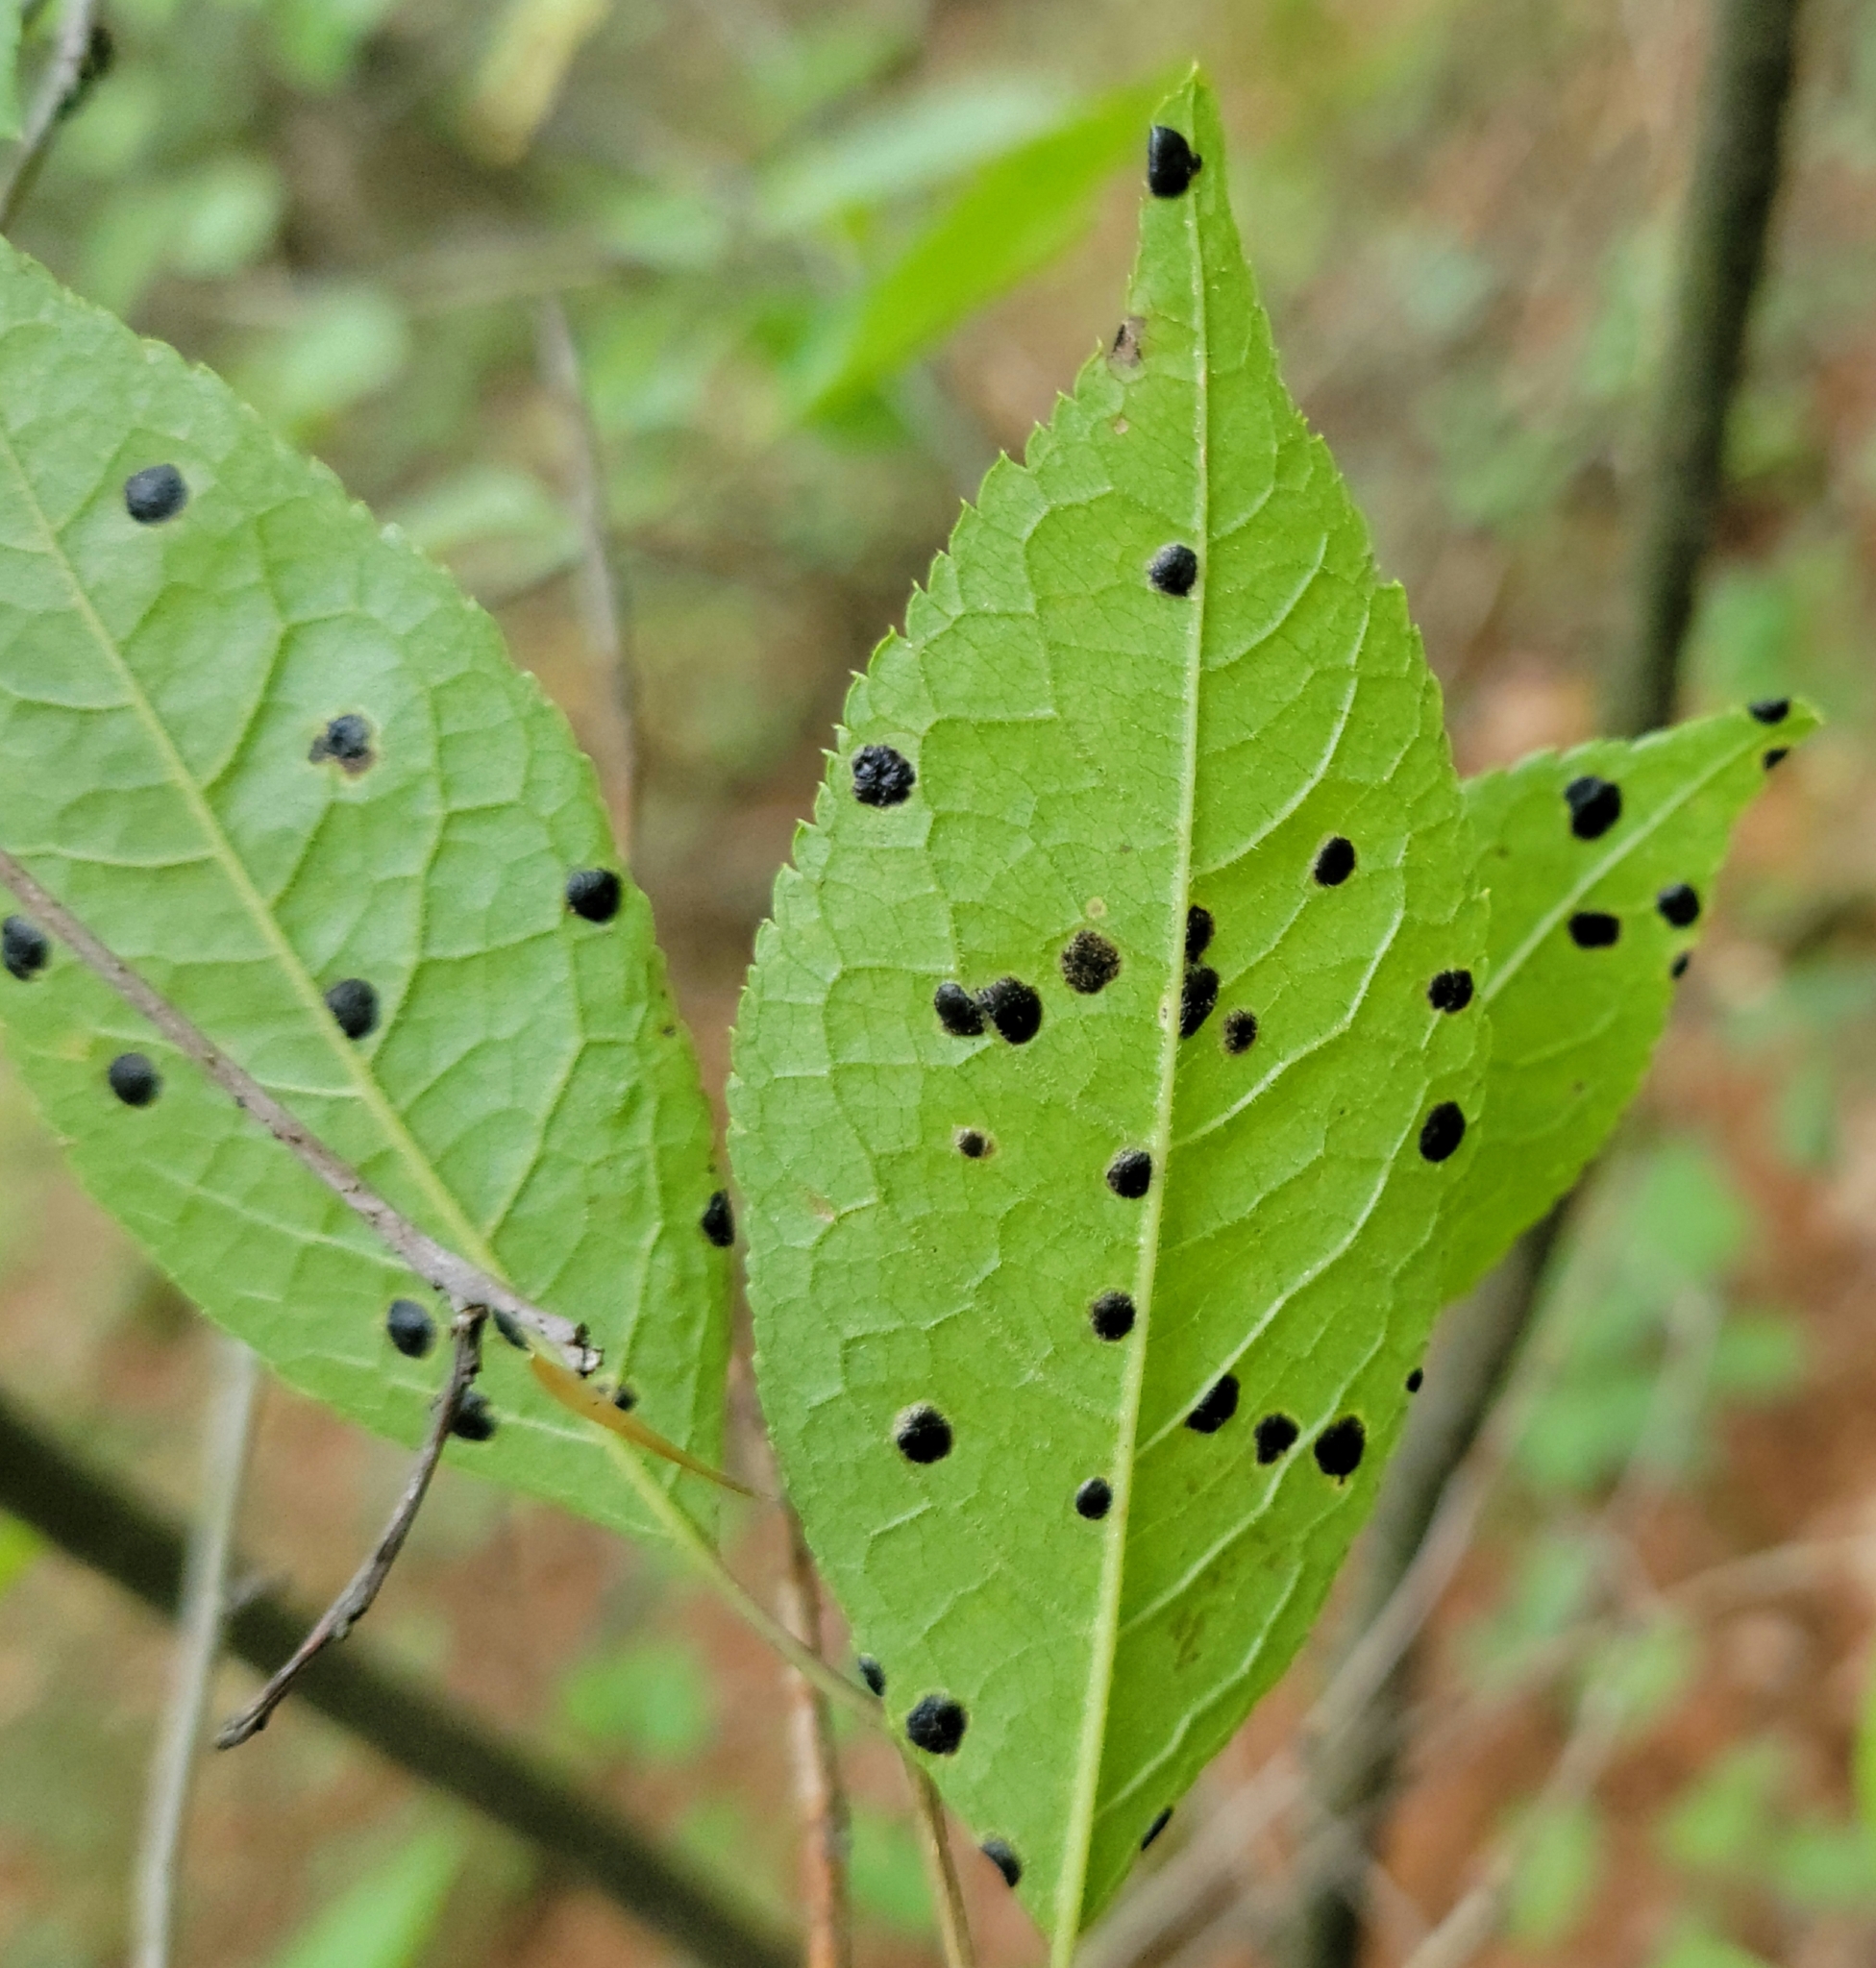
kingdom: Fungi
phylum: Ascomycota
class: Leotiomycetes
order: Rhytismatales
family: Rhytismataceae
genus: Rhytisma
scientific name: Rhytisma
